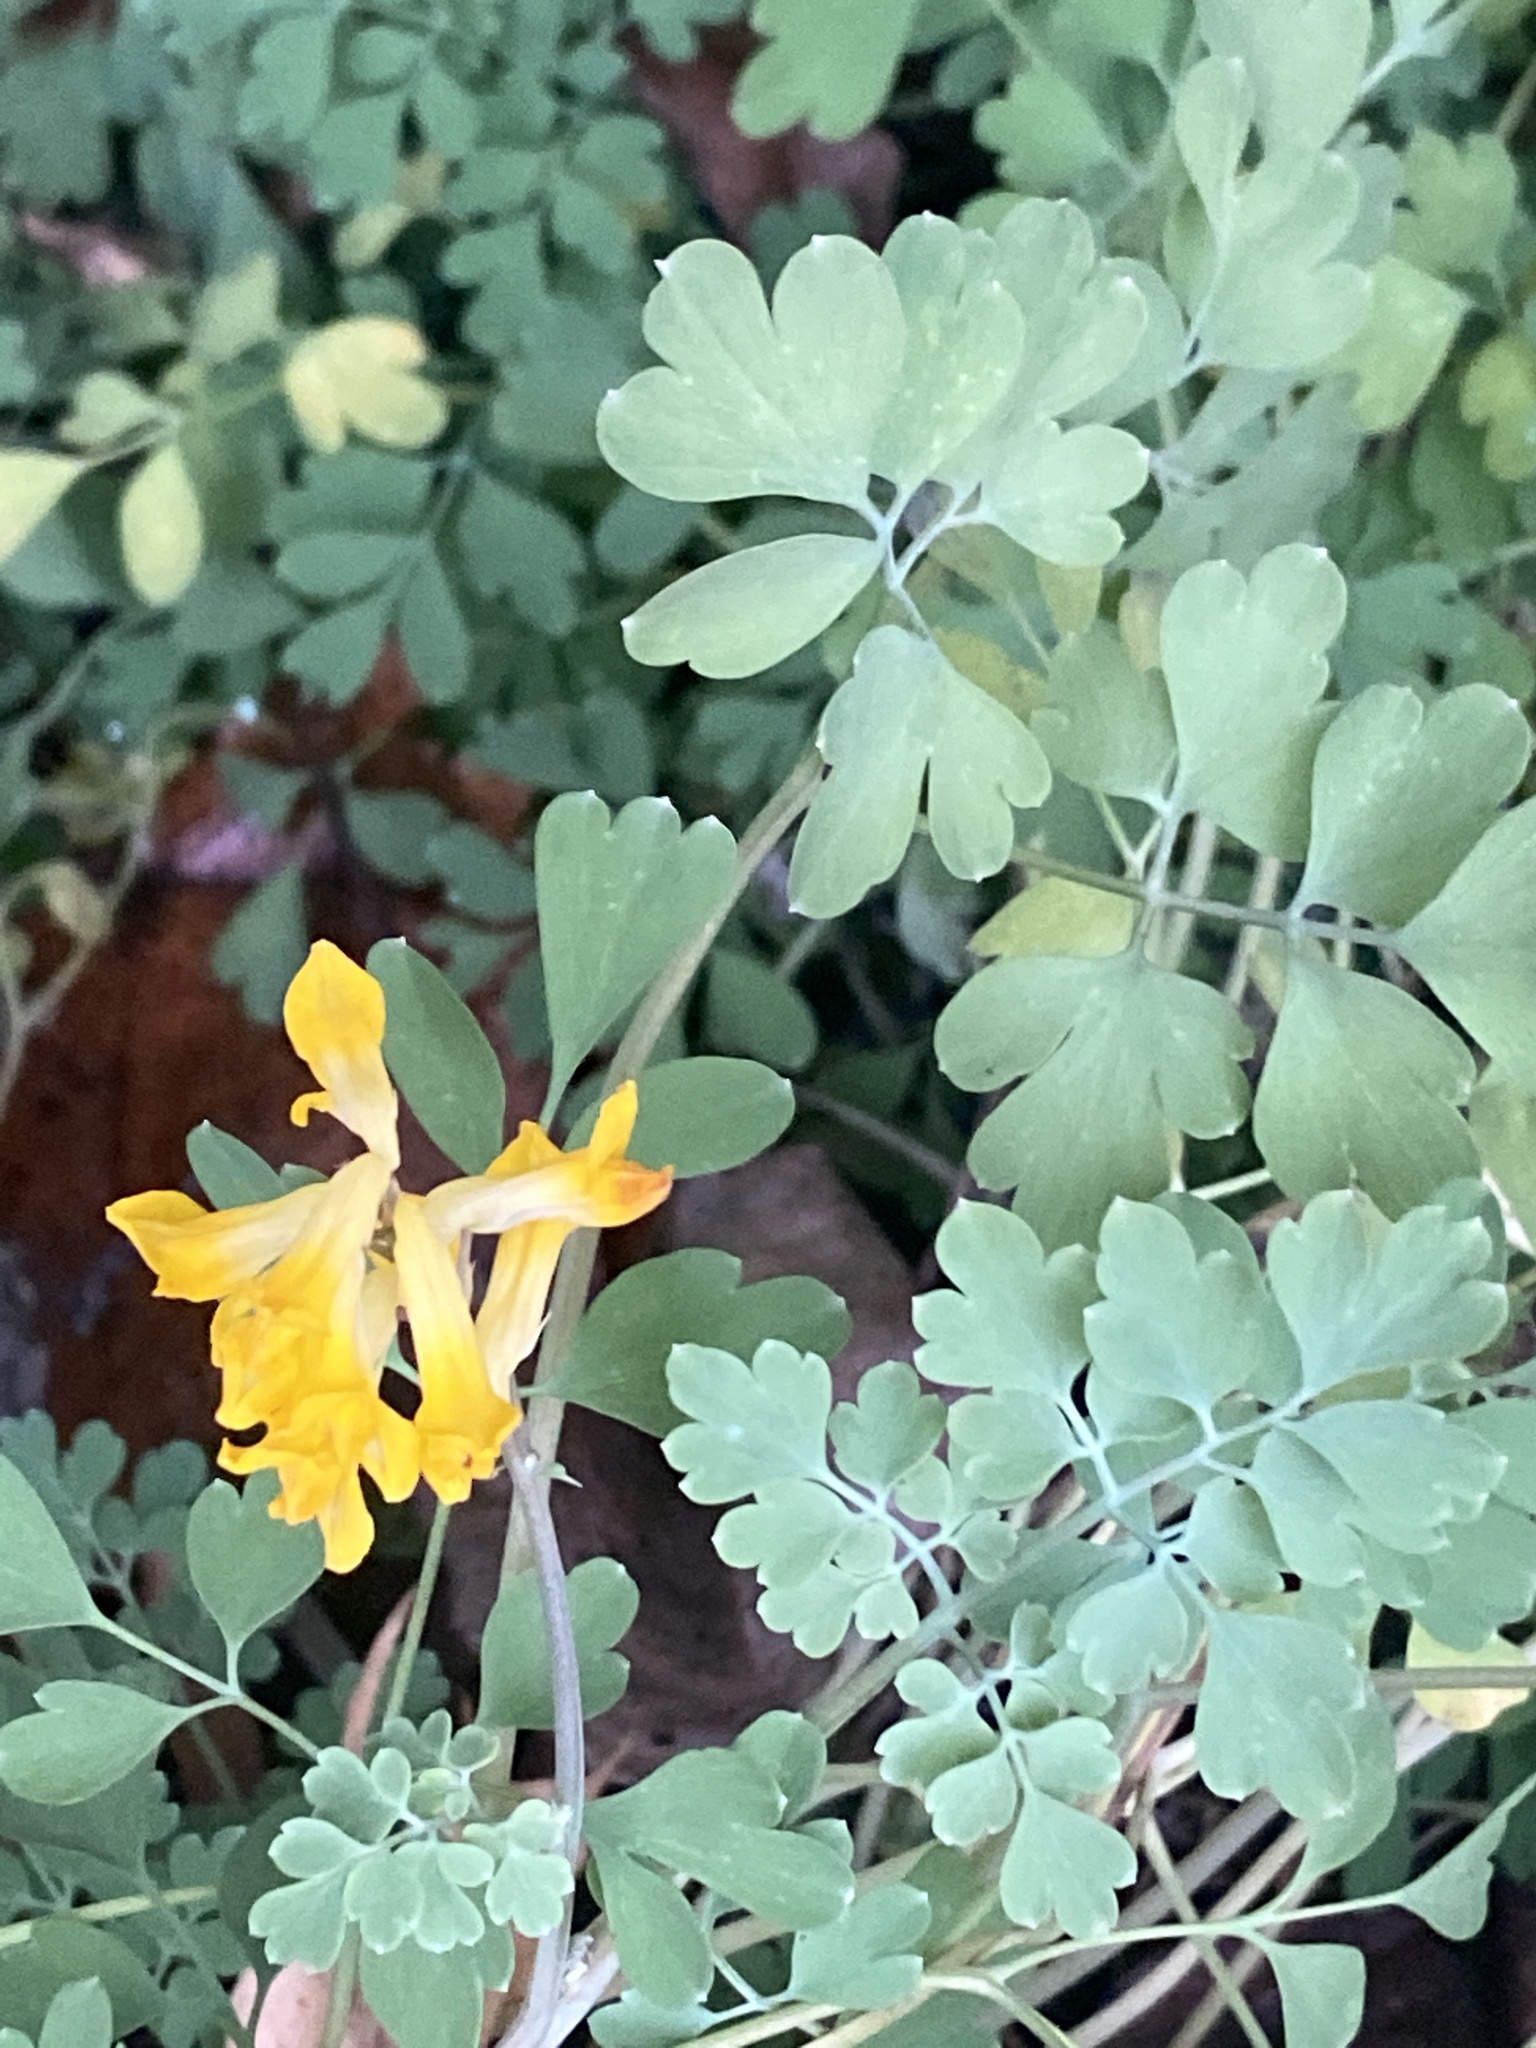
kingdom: Plantae
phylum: Tracheophyta
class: Magnoliopsida
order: Ranunculales
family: Papaveraceae
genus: Pseudofumaria
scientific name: Pseudofumaria lutea
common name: Yellow corydalis
